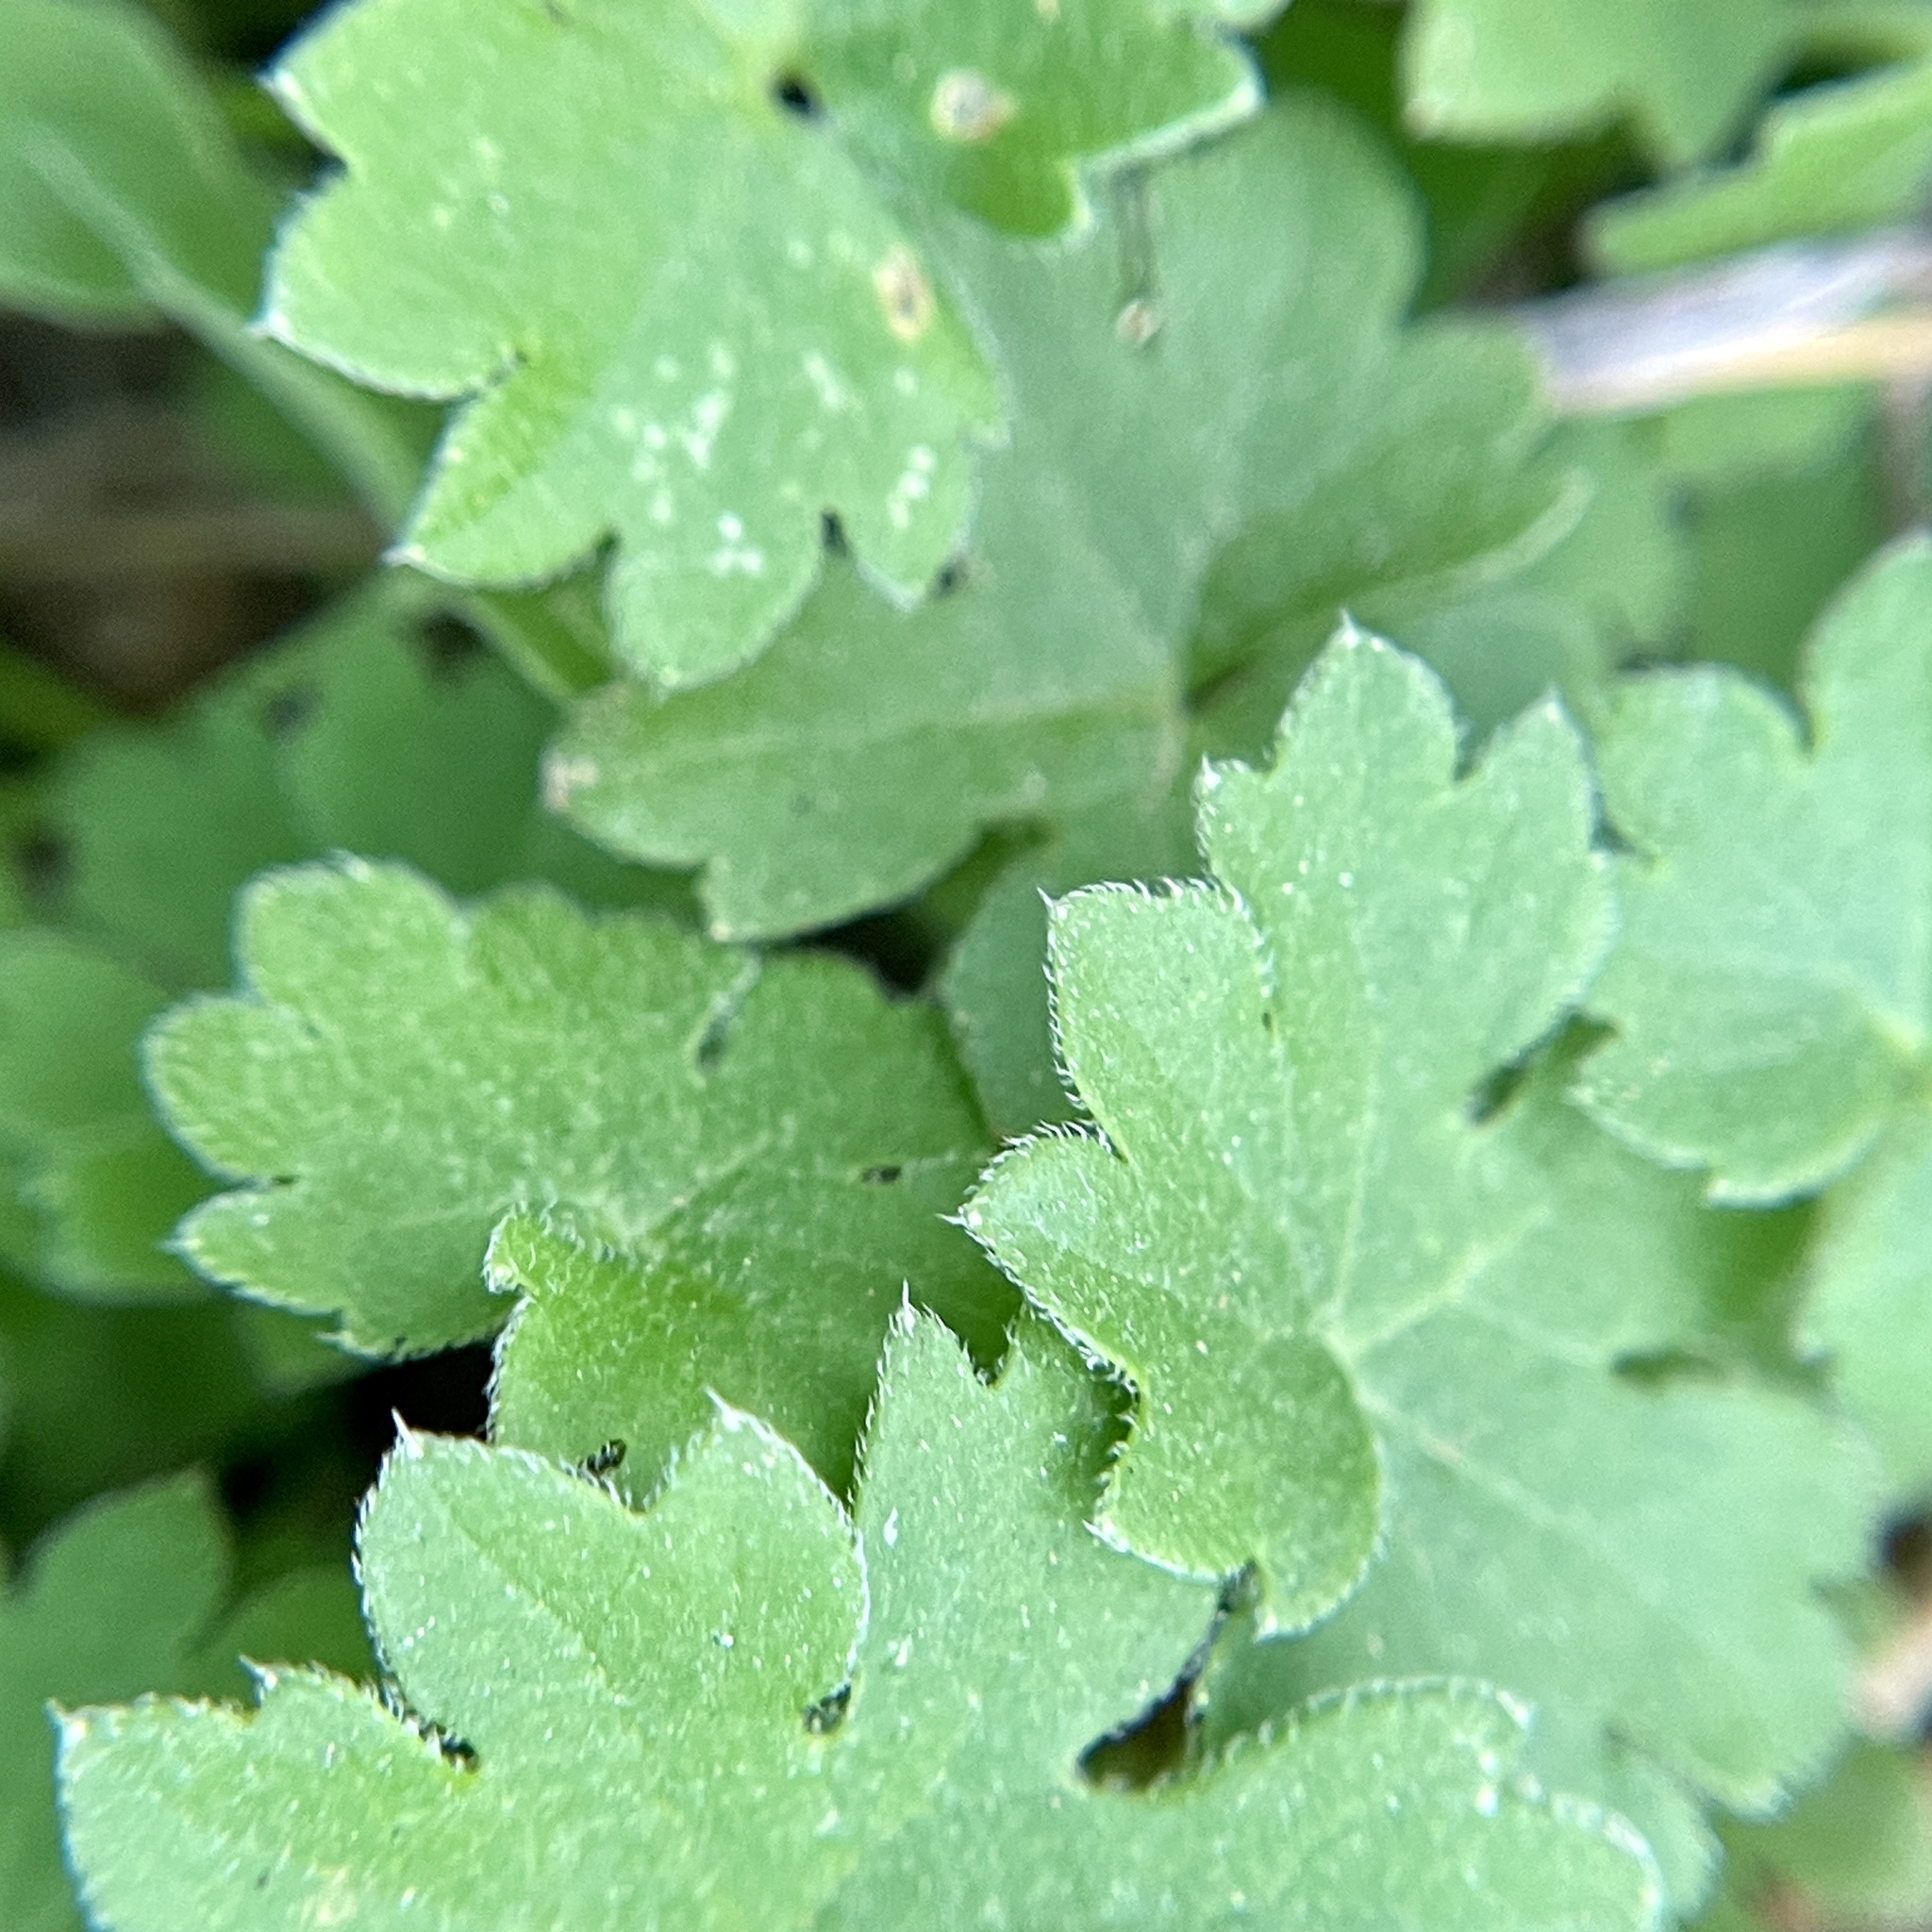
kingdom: Plantae
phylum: Tracheophyta
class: Magnoliopsida
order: Apiales
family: Apiaceae
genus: Bowlesia
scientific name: Bowlesia incana
